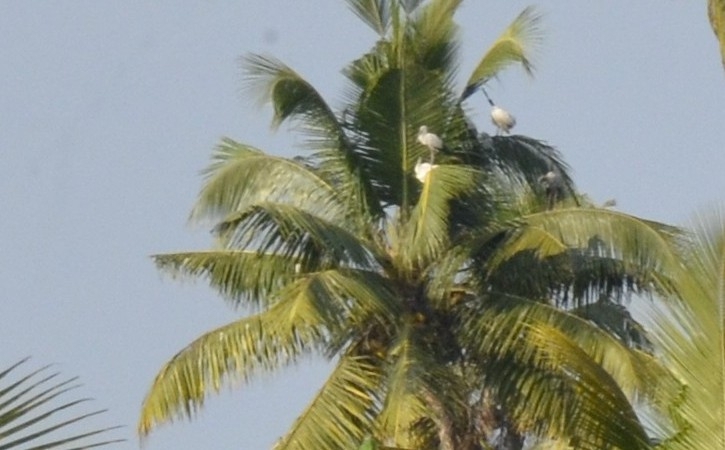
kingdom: Animalia
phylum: Chordata
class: Aves
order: Ciconiiformes
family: Ciconiidae
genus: Anastomus
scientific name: Anastomus oscitans
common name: Asian openbill
